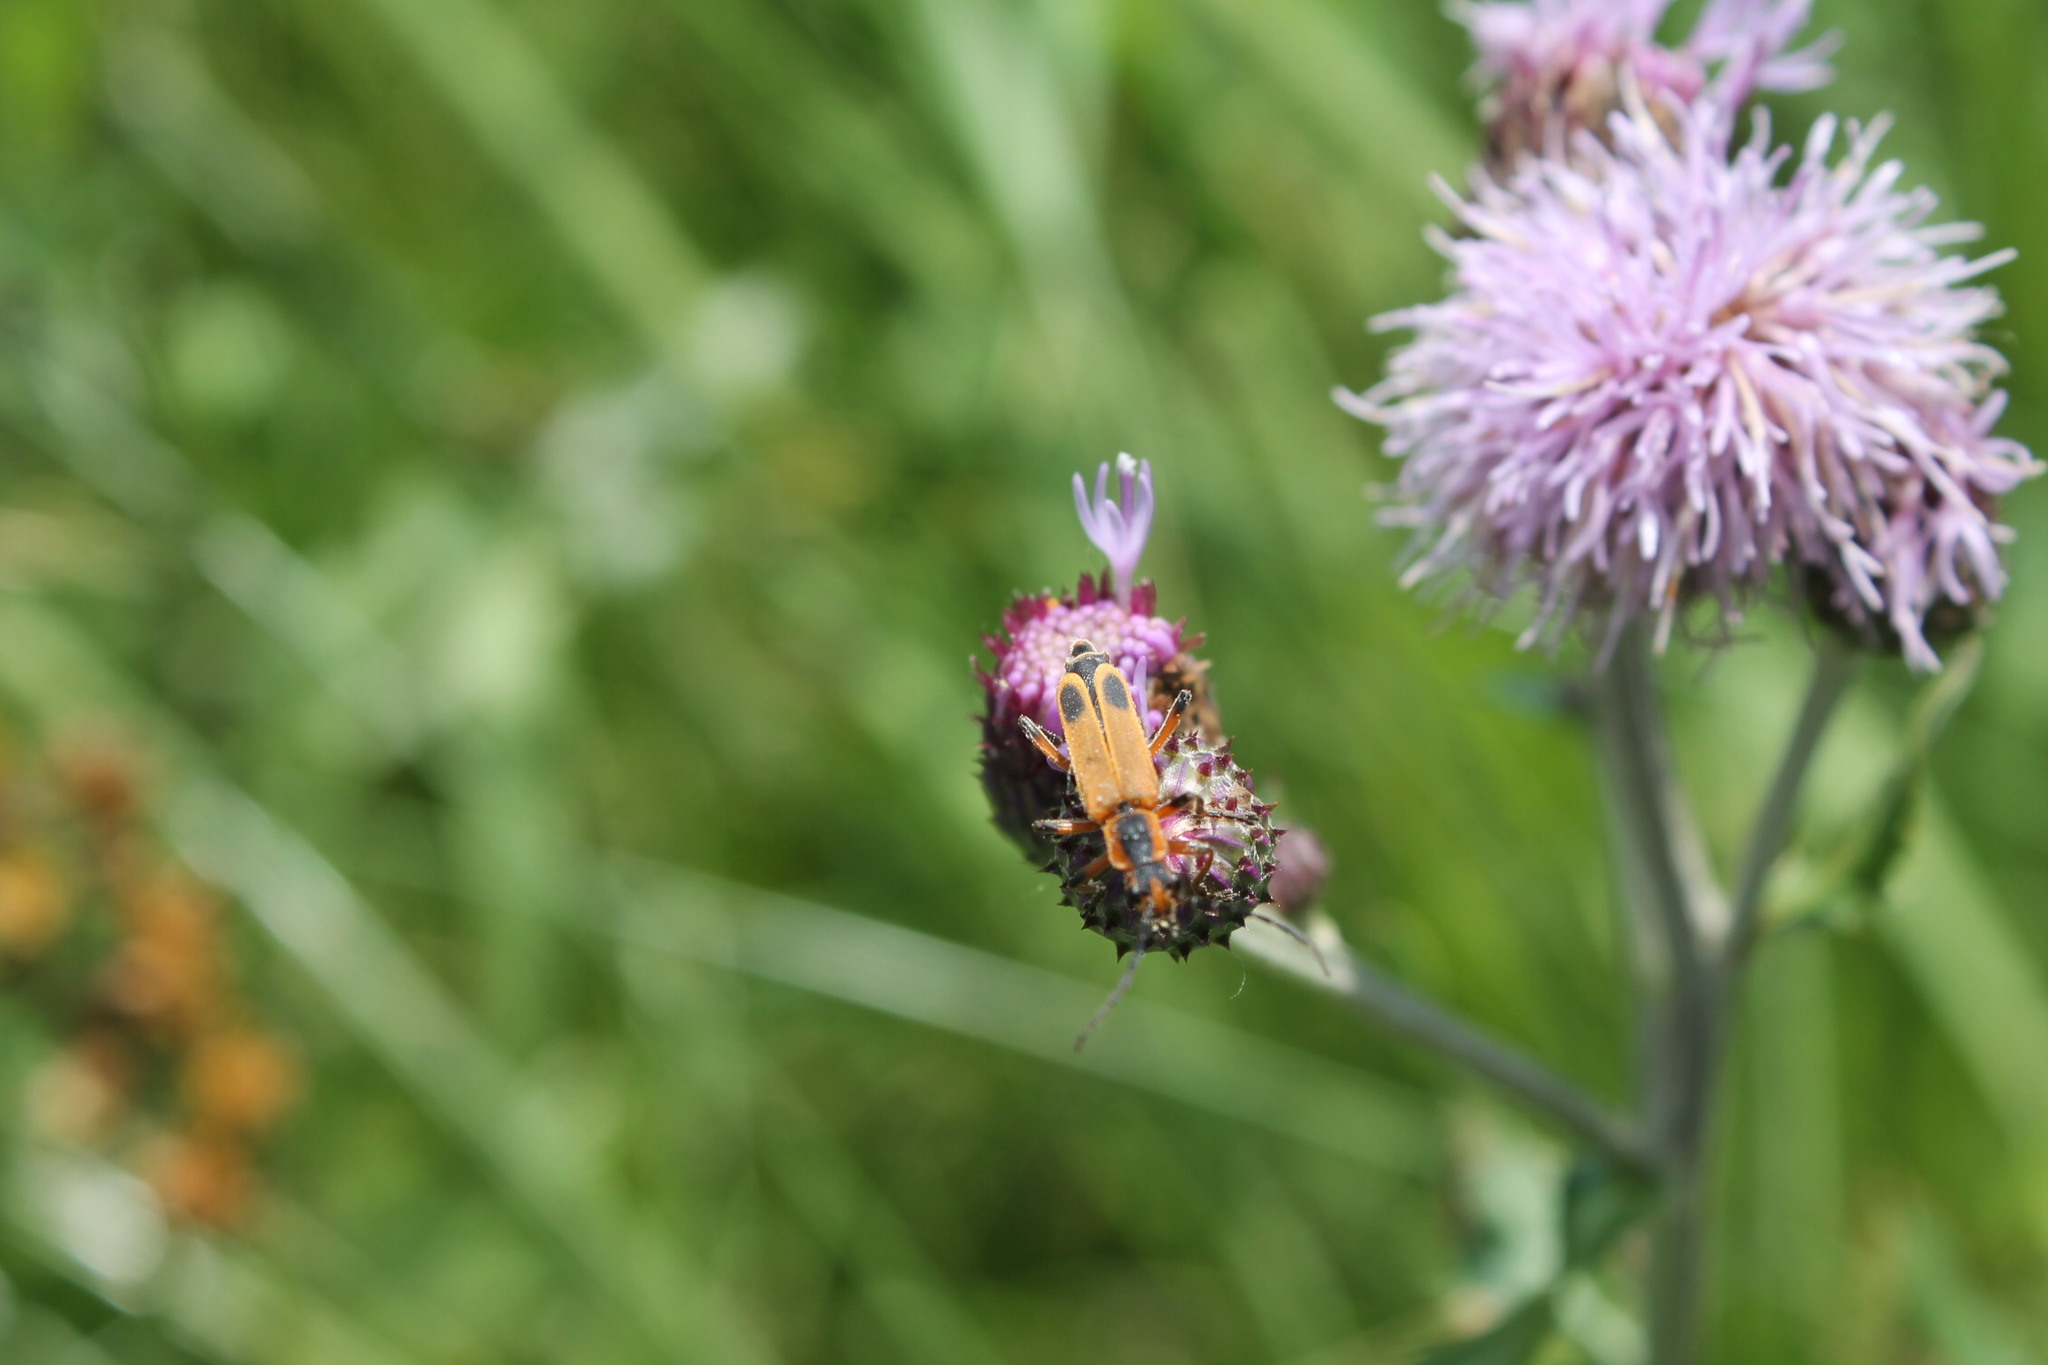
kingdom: Animalia
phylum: Arthropoda
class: Insecta
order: Coleoptera
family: Cantharidae
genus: Chauliognathus
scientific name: Chauliognathus marginatus
